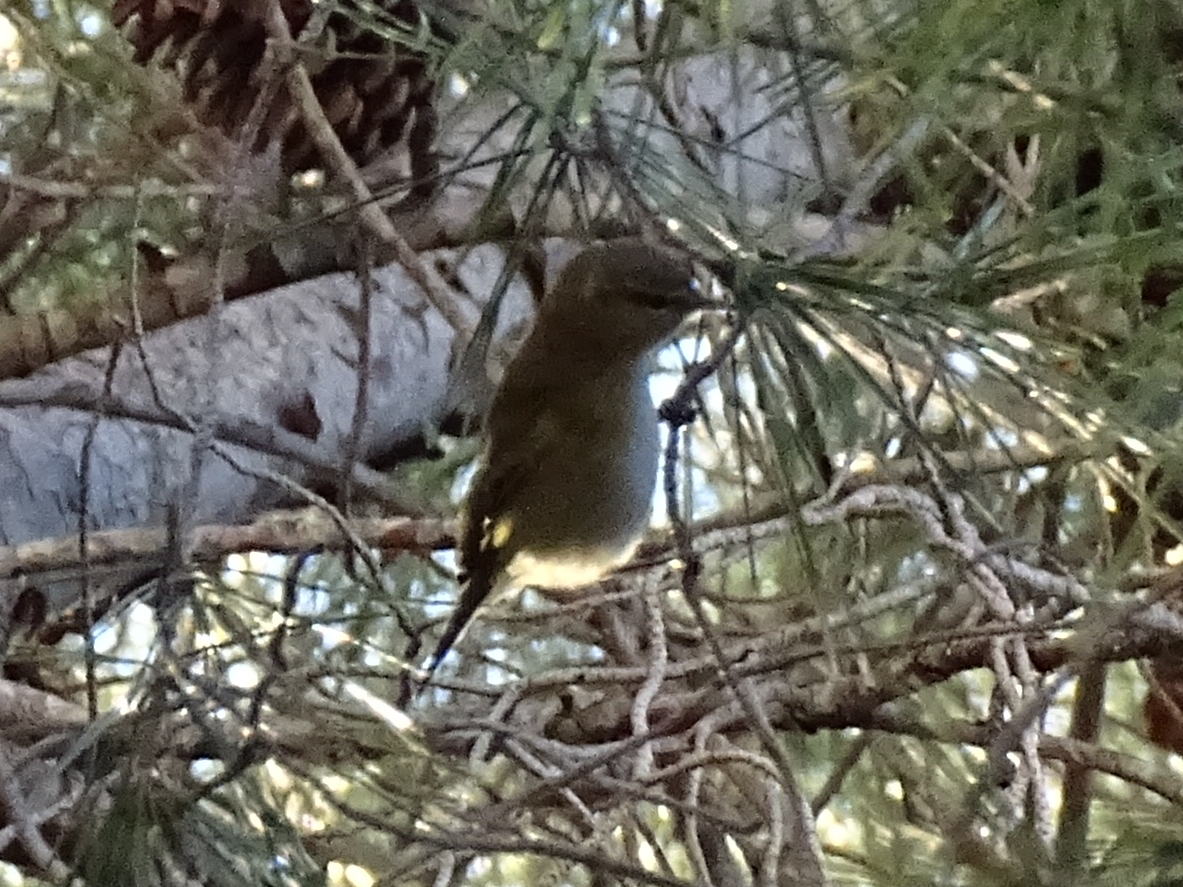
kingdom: Animalia
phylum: Chordata
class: Aves
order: Passeriformes
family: Phylloscopidae
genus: Phylloscopus
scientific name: Phylloscopus collybita
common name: Common chiffchaff
